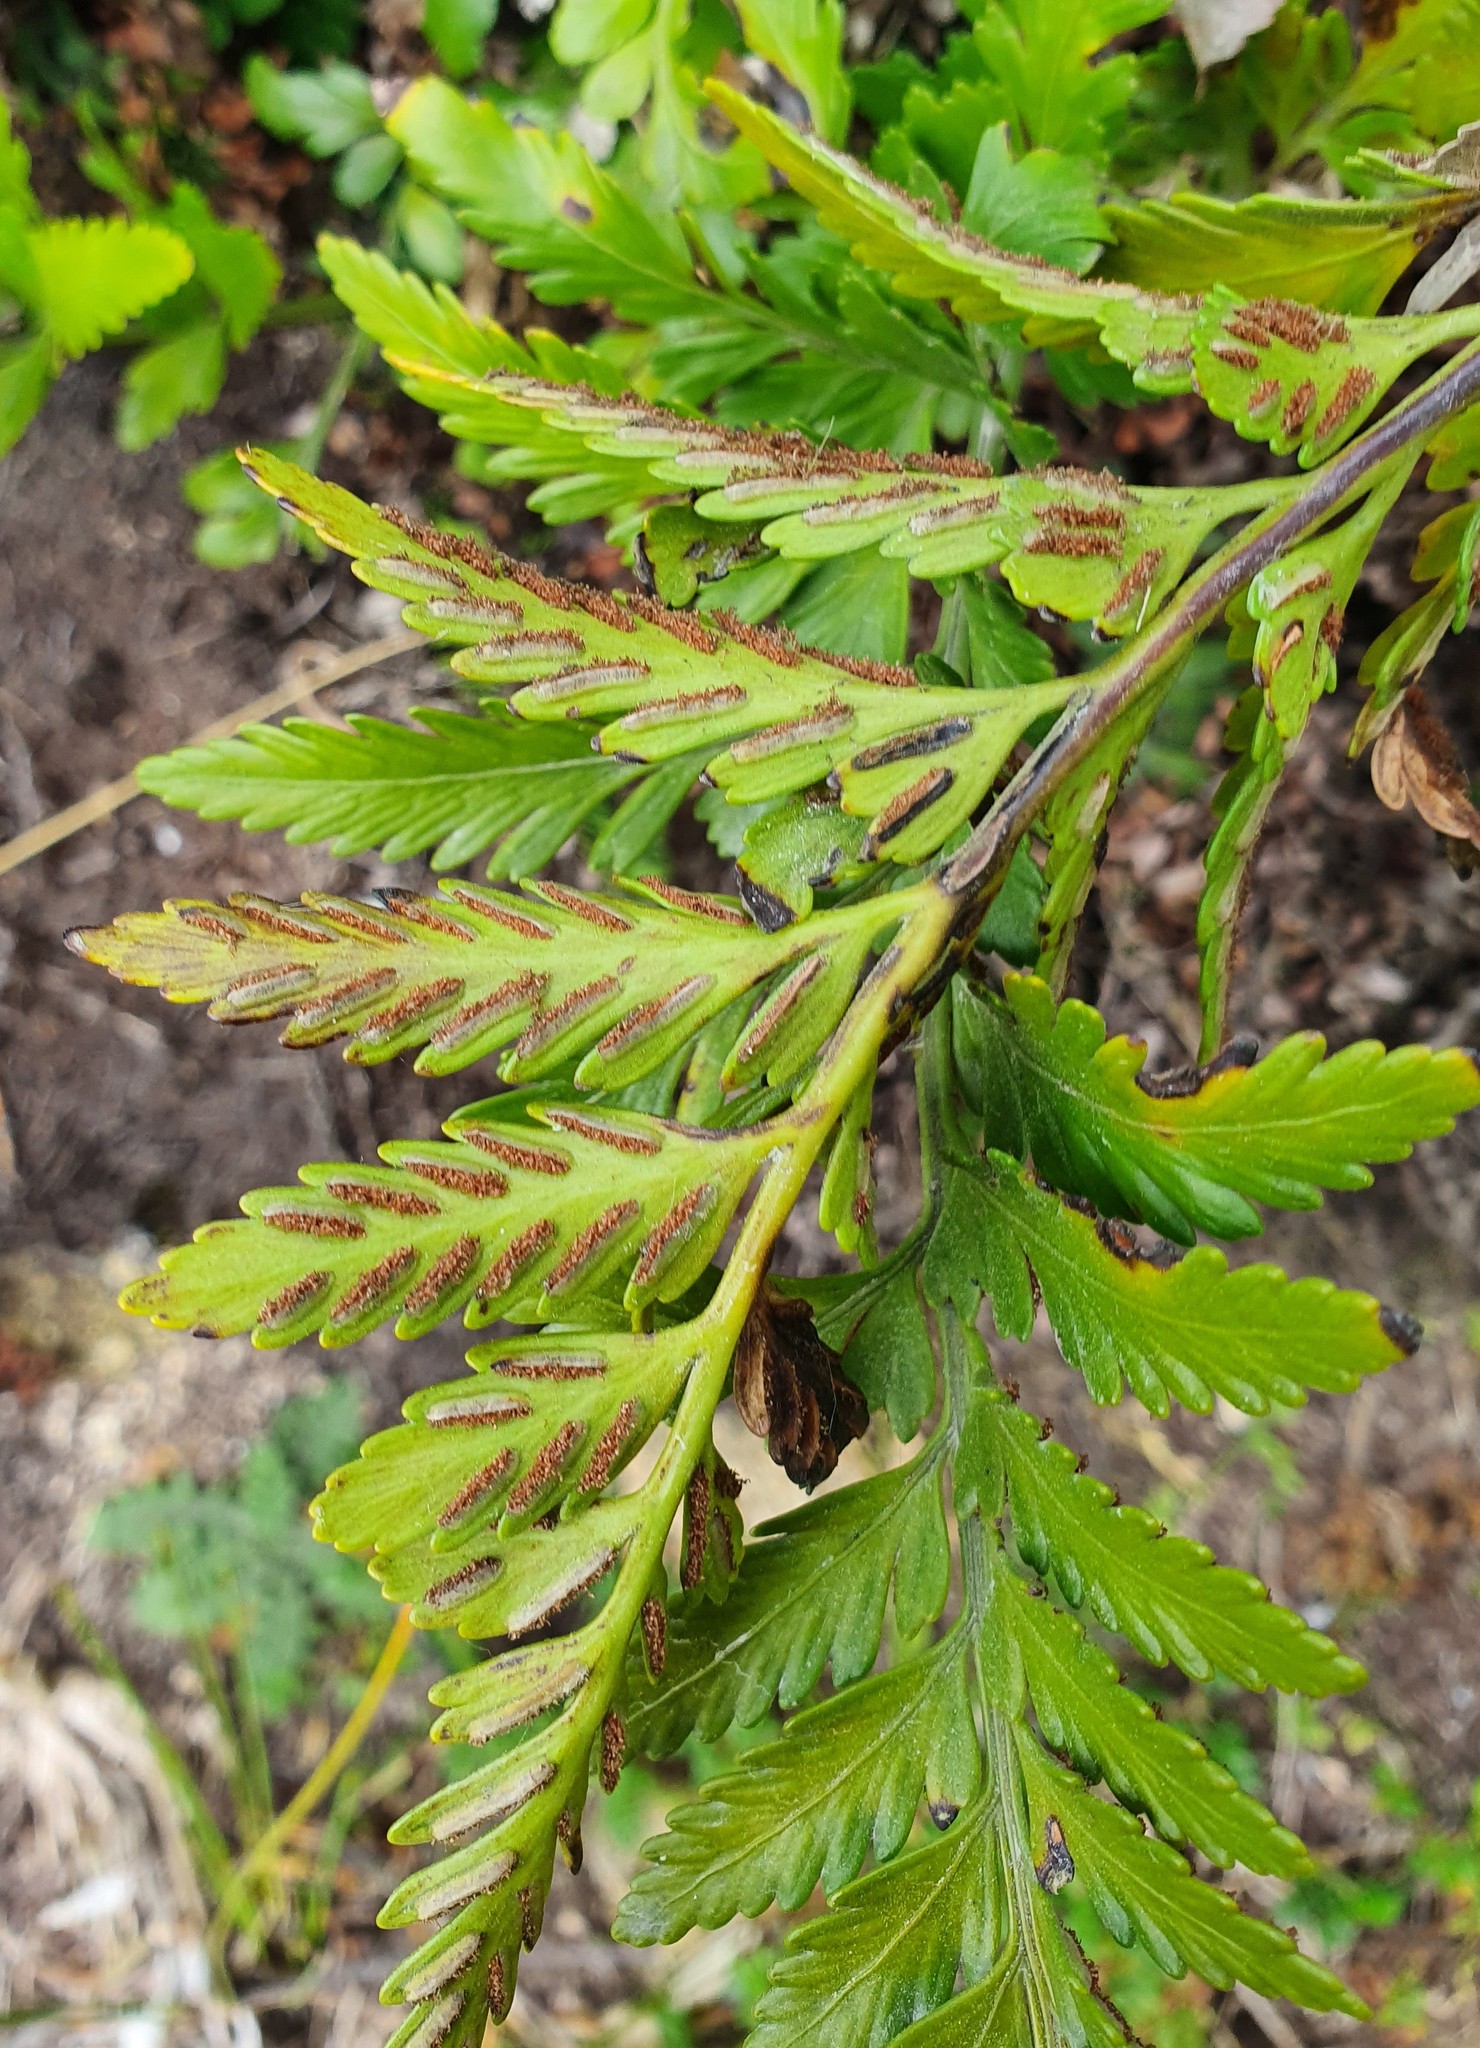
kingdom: Plantae
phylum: Tracheophyta
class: Polypodiopsida
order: Polypodiales
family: Aspleniaceae
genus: Asplenium
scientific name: Asplenium lyallii
